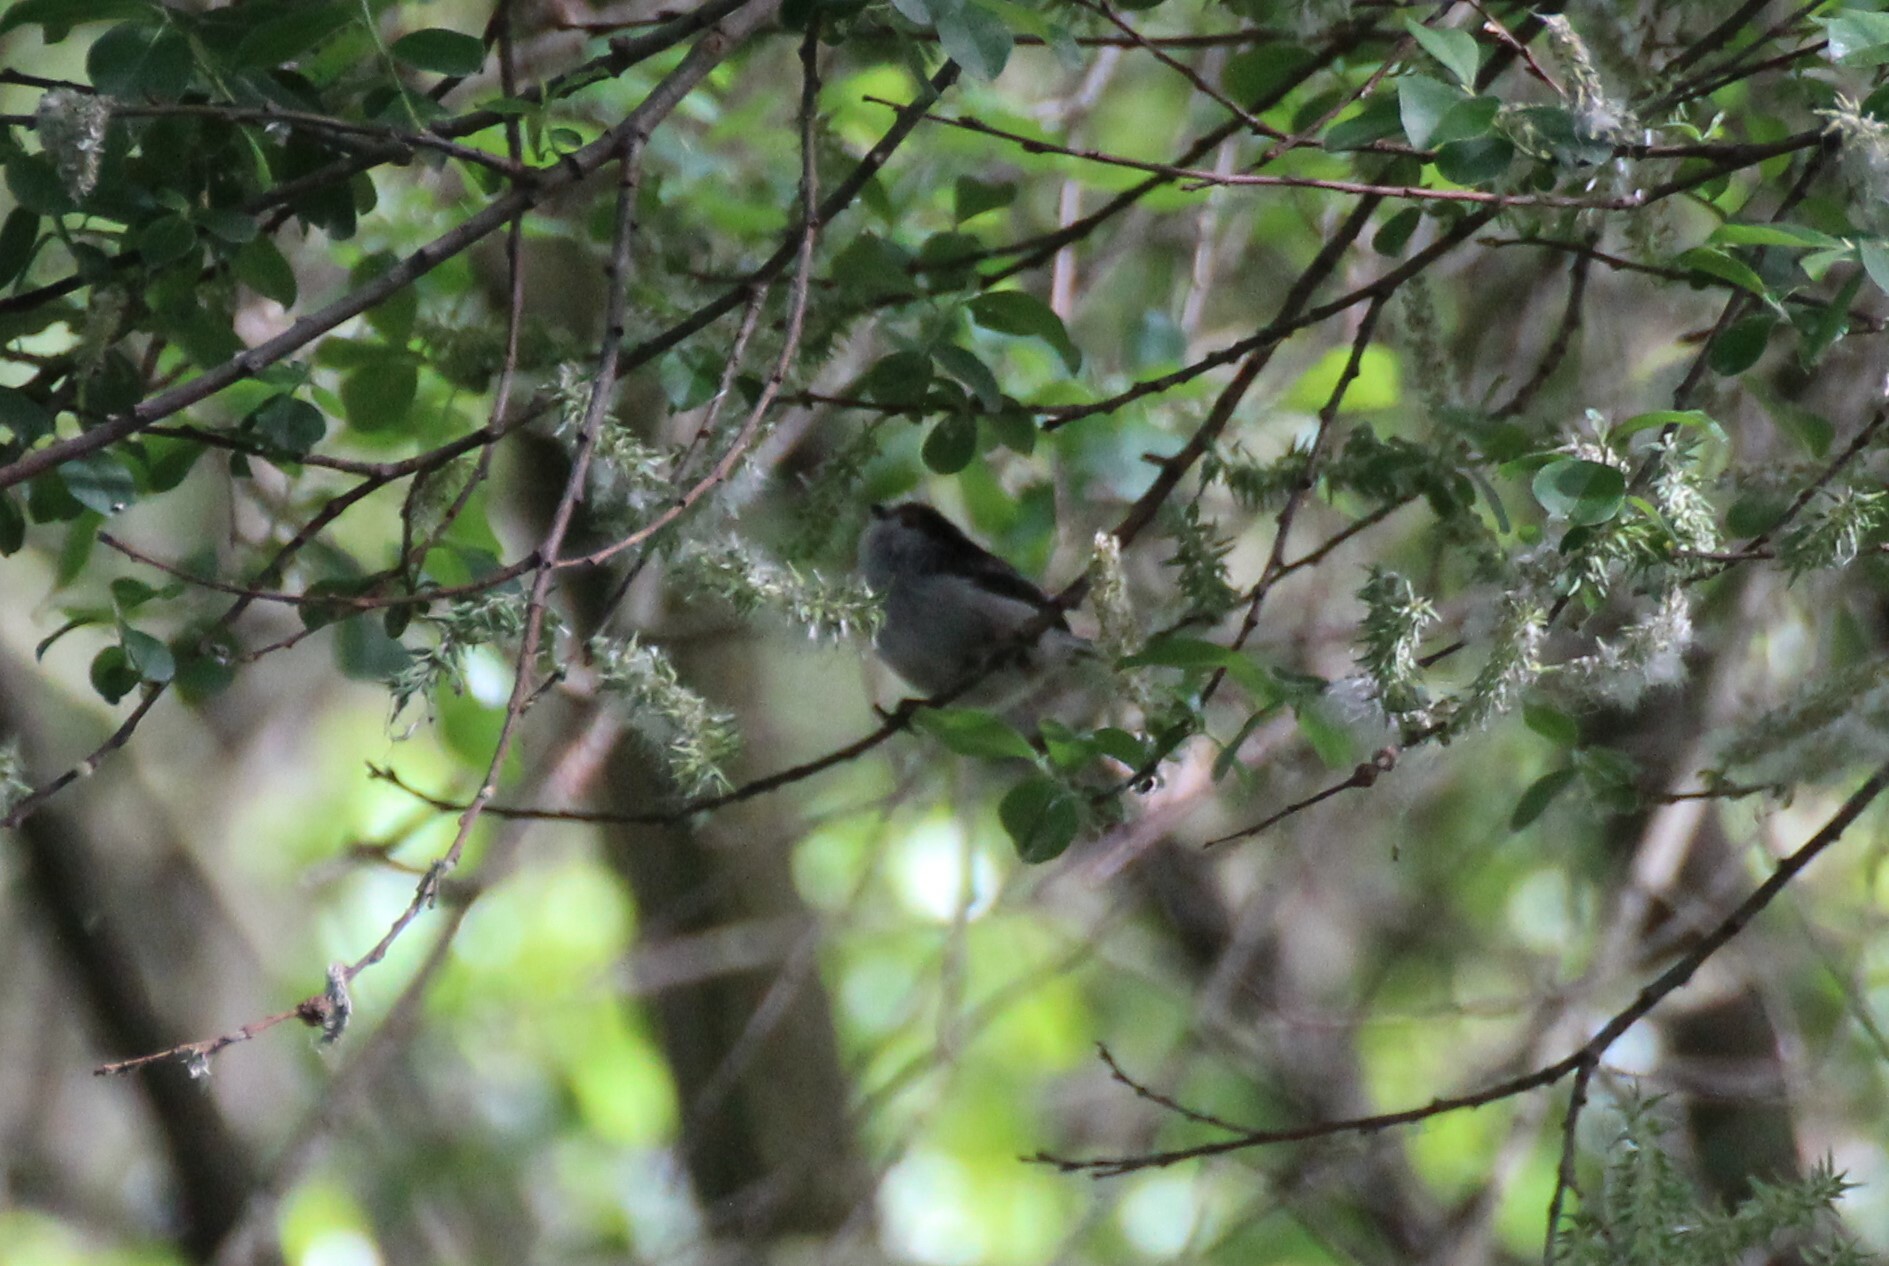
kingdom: Animalia
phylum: Chordata
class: Aves
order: Passeriformes
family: Aegithalidae
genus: Aegithalos
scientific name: Aegithalos caudatus
